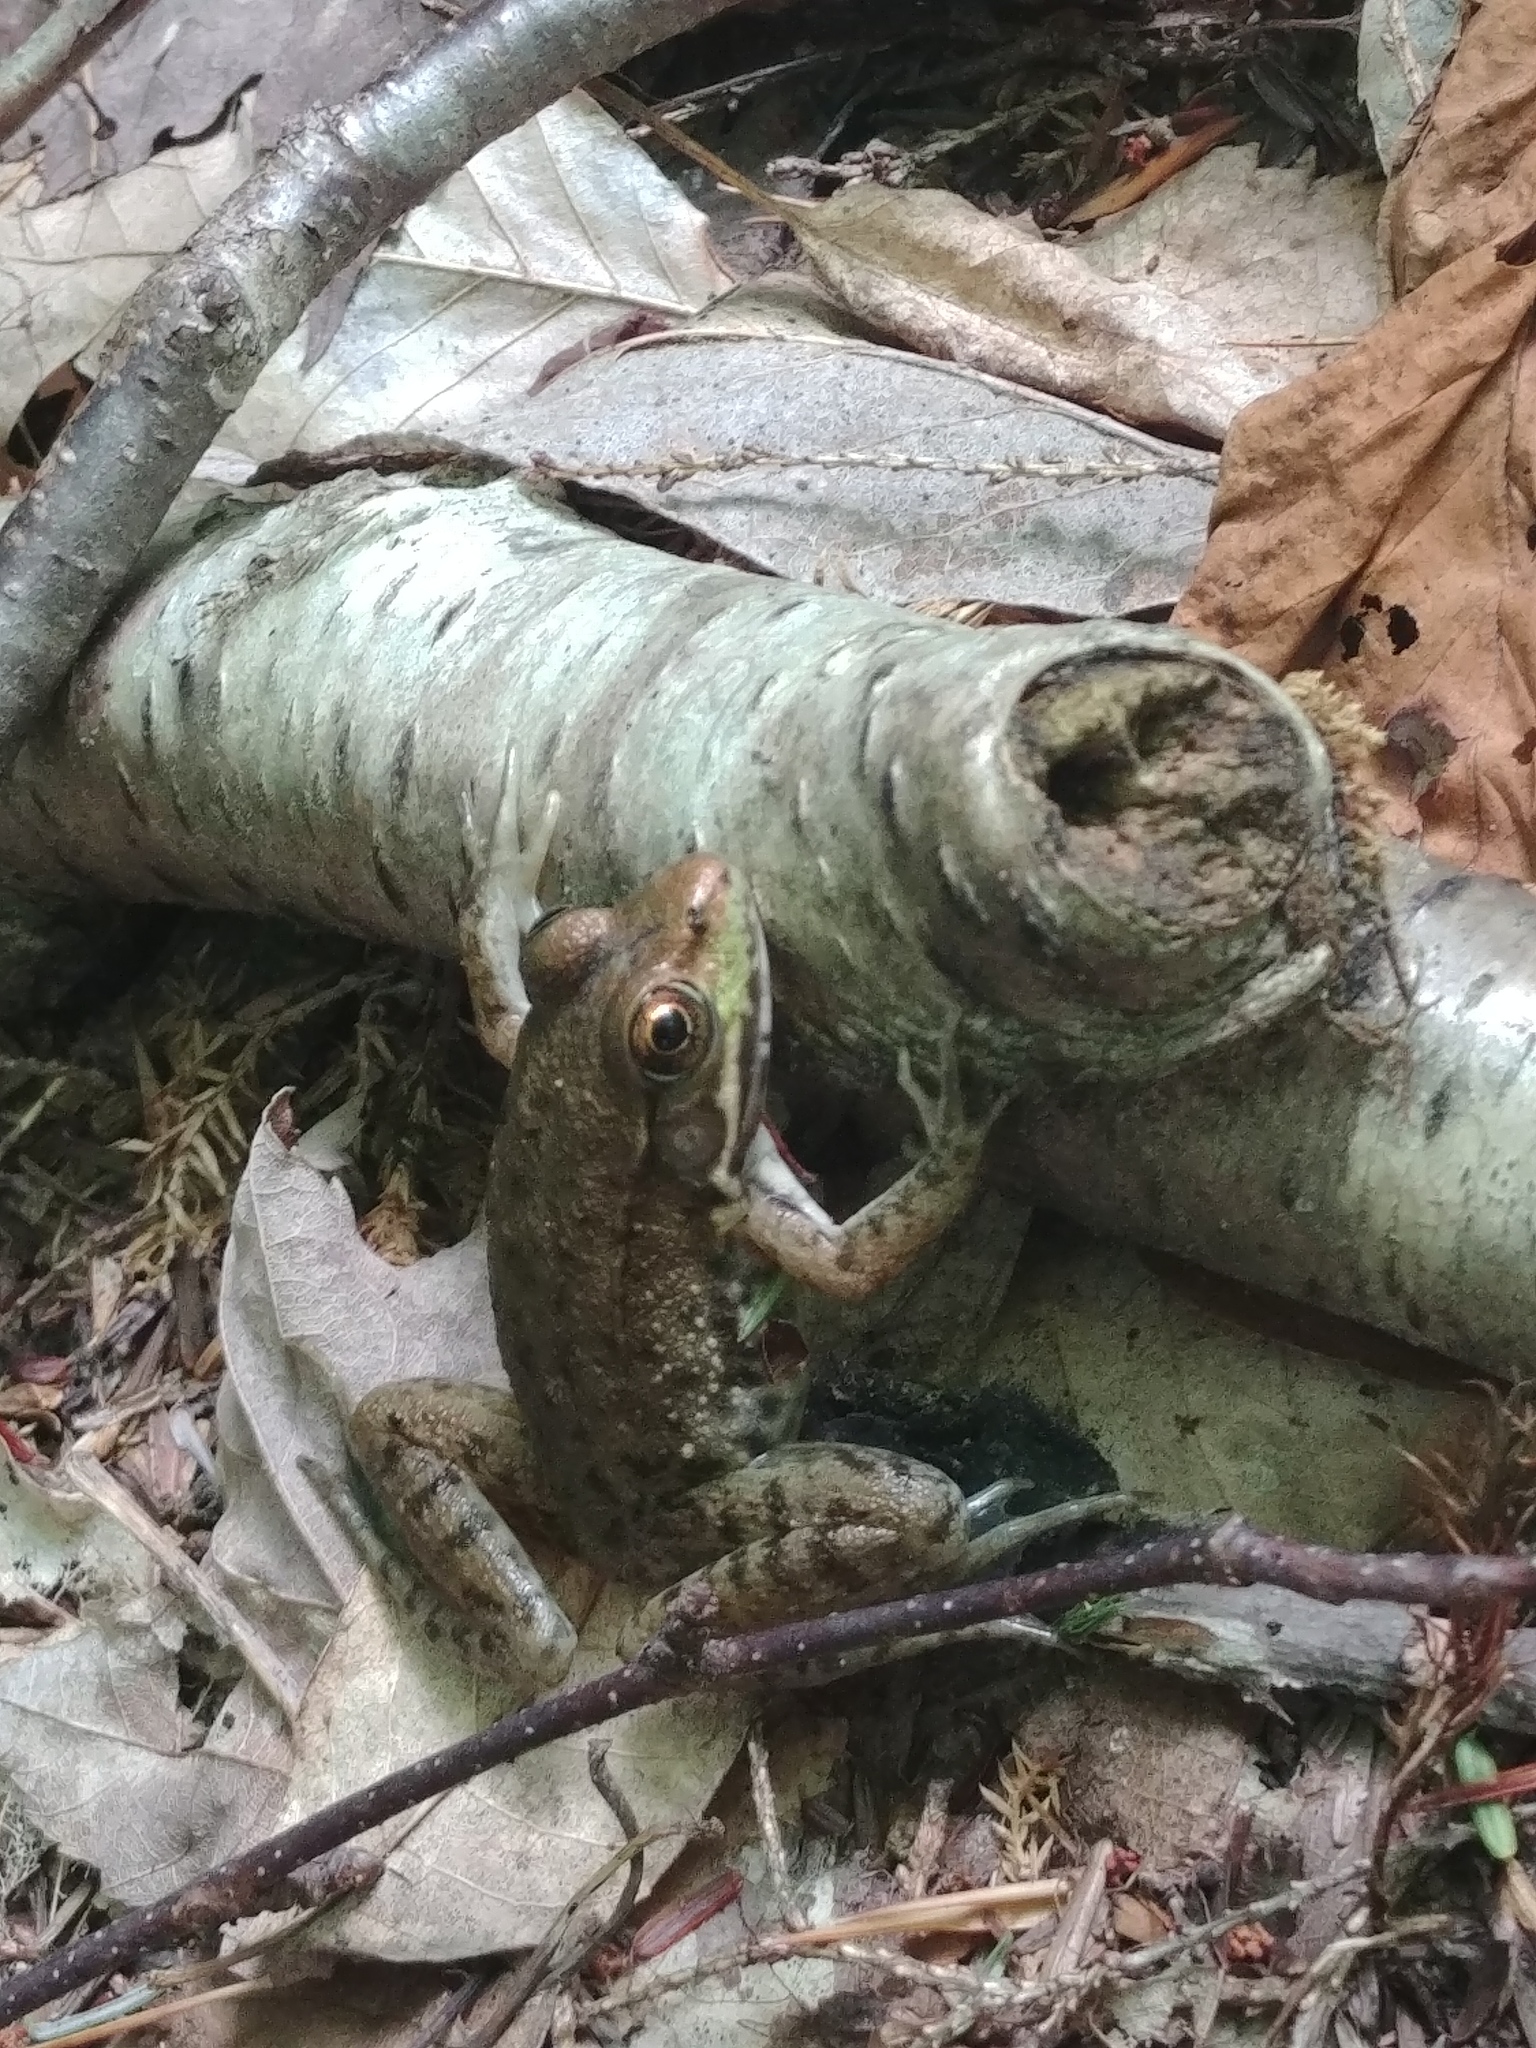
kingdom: Animalia
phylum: Chordata
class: Amphibia
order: Anura
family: Ranidae
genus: Lithobates
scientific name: Lithobates clamitans
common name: Green frog
